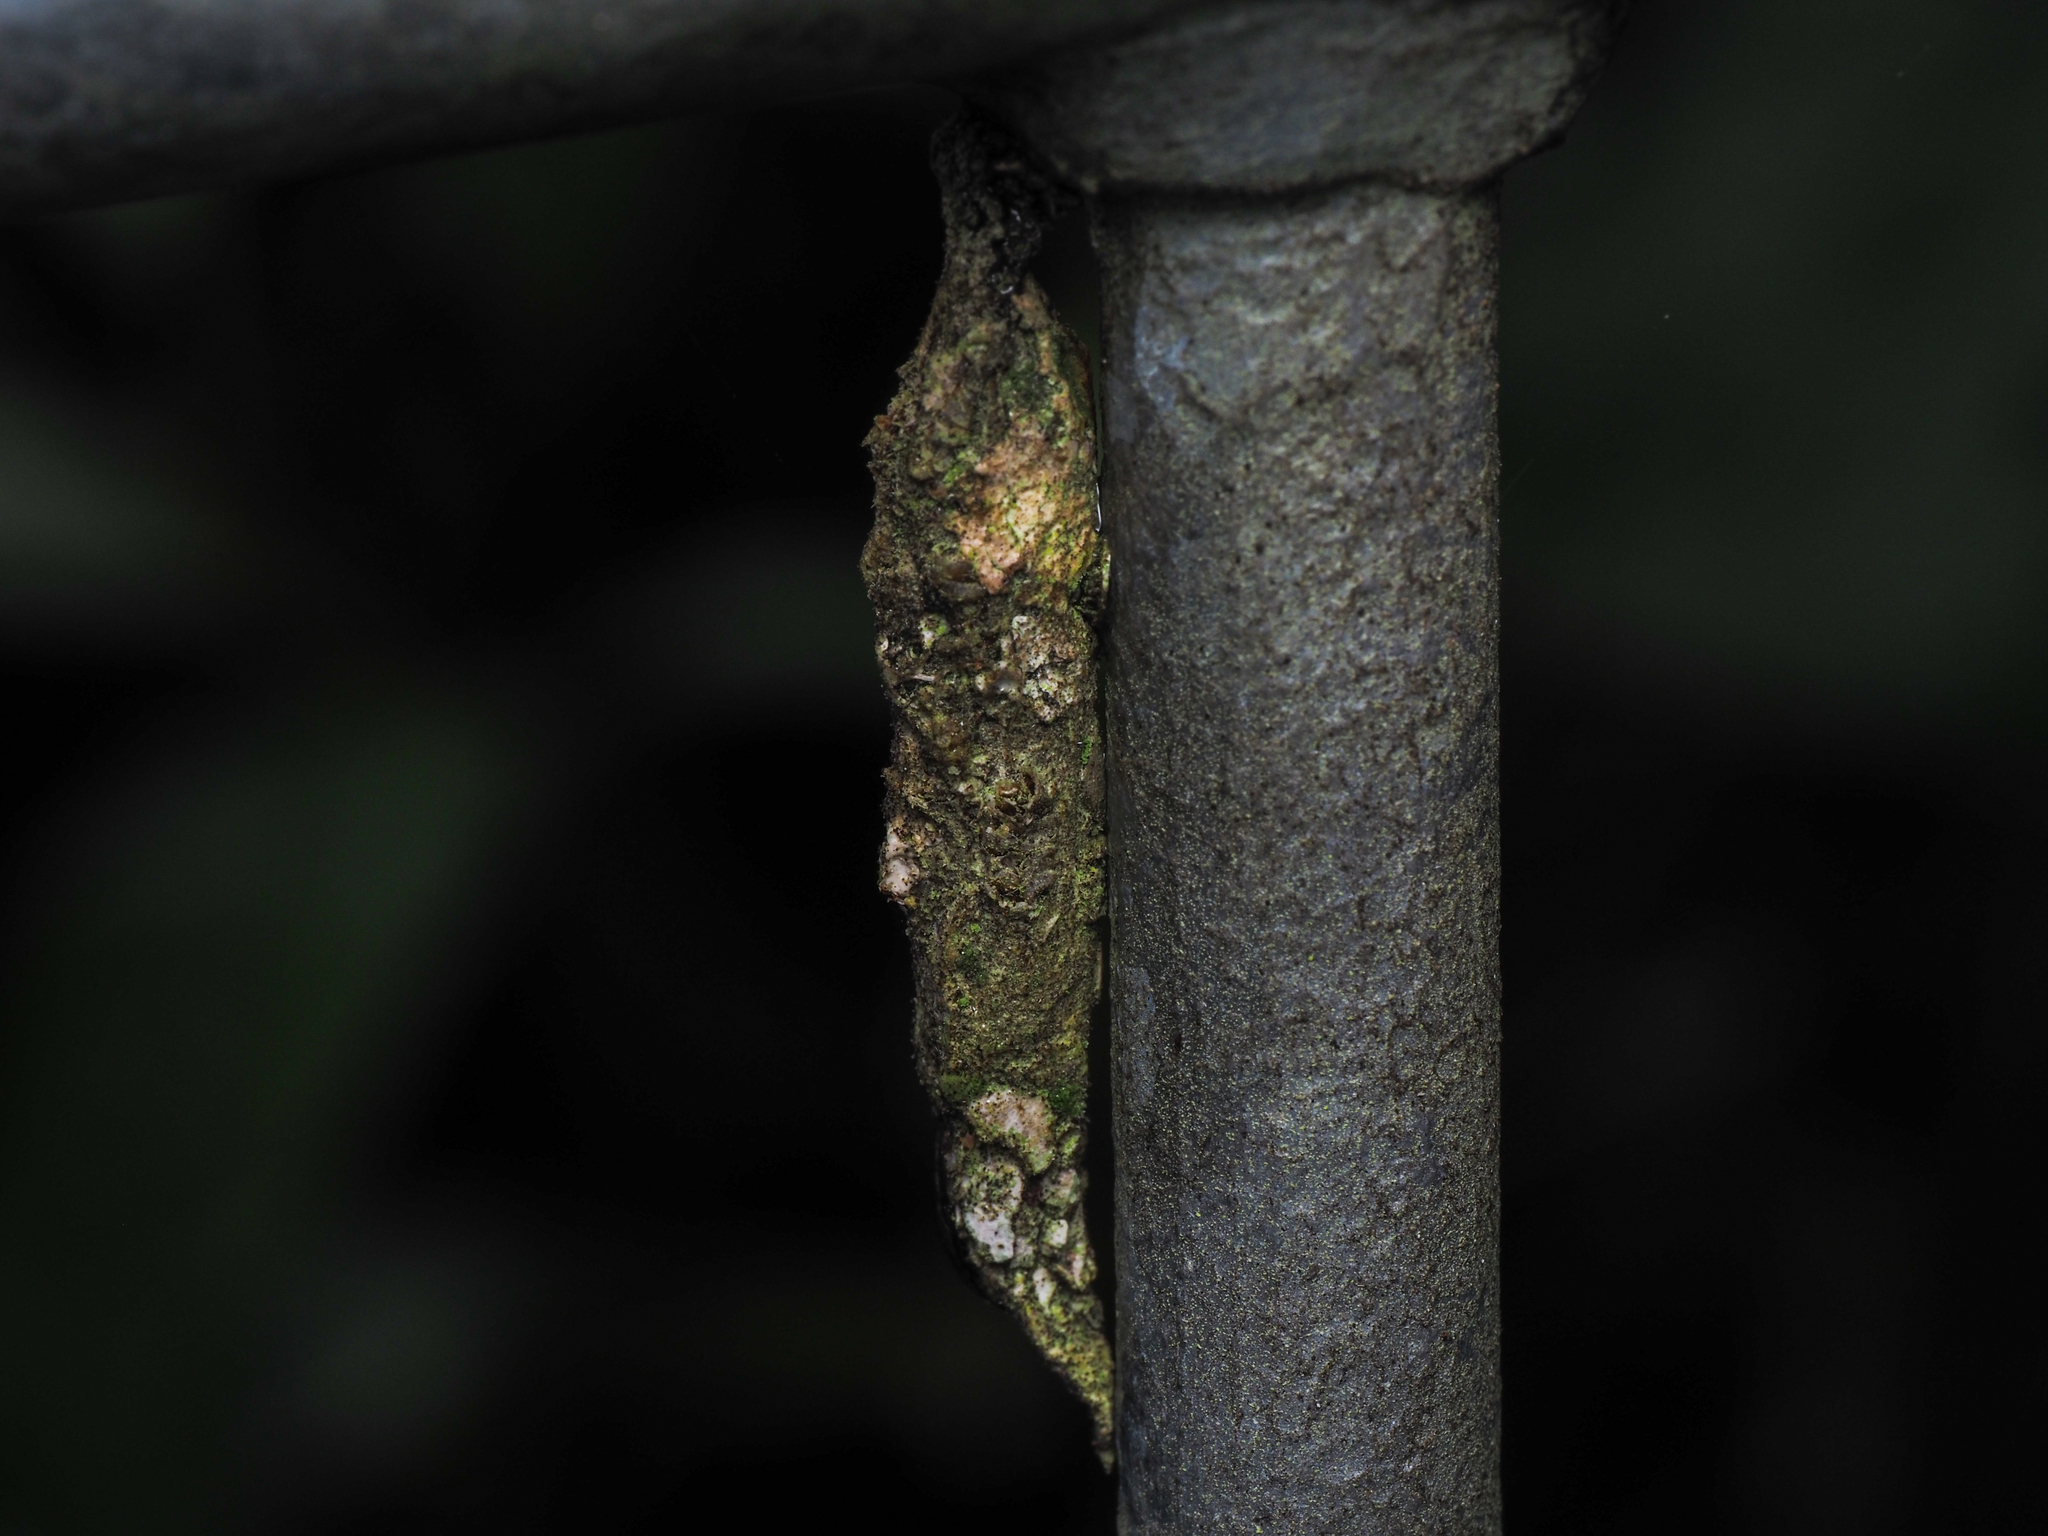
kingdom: Animalia
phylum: Arthropoda
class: Insecta
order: Lepidoptera
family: Psychidae
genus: Liothula
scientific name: Liothula omnivora
